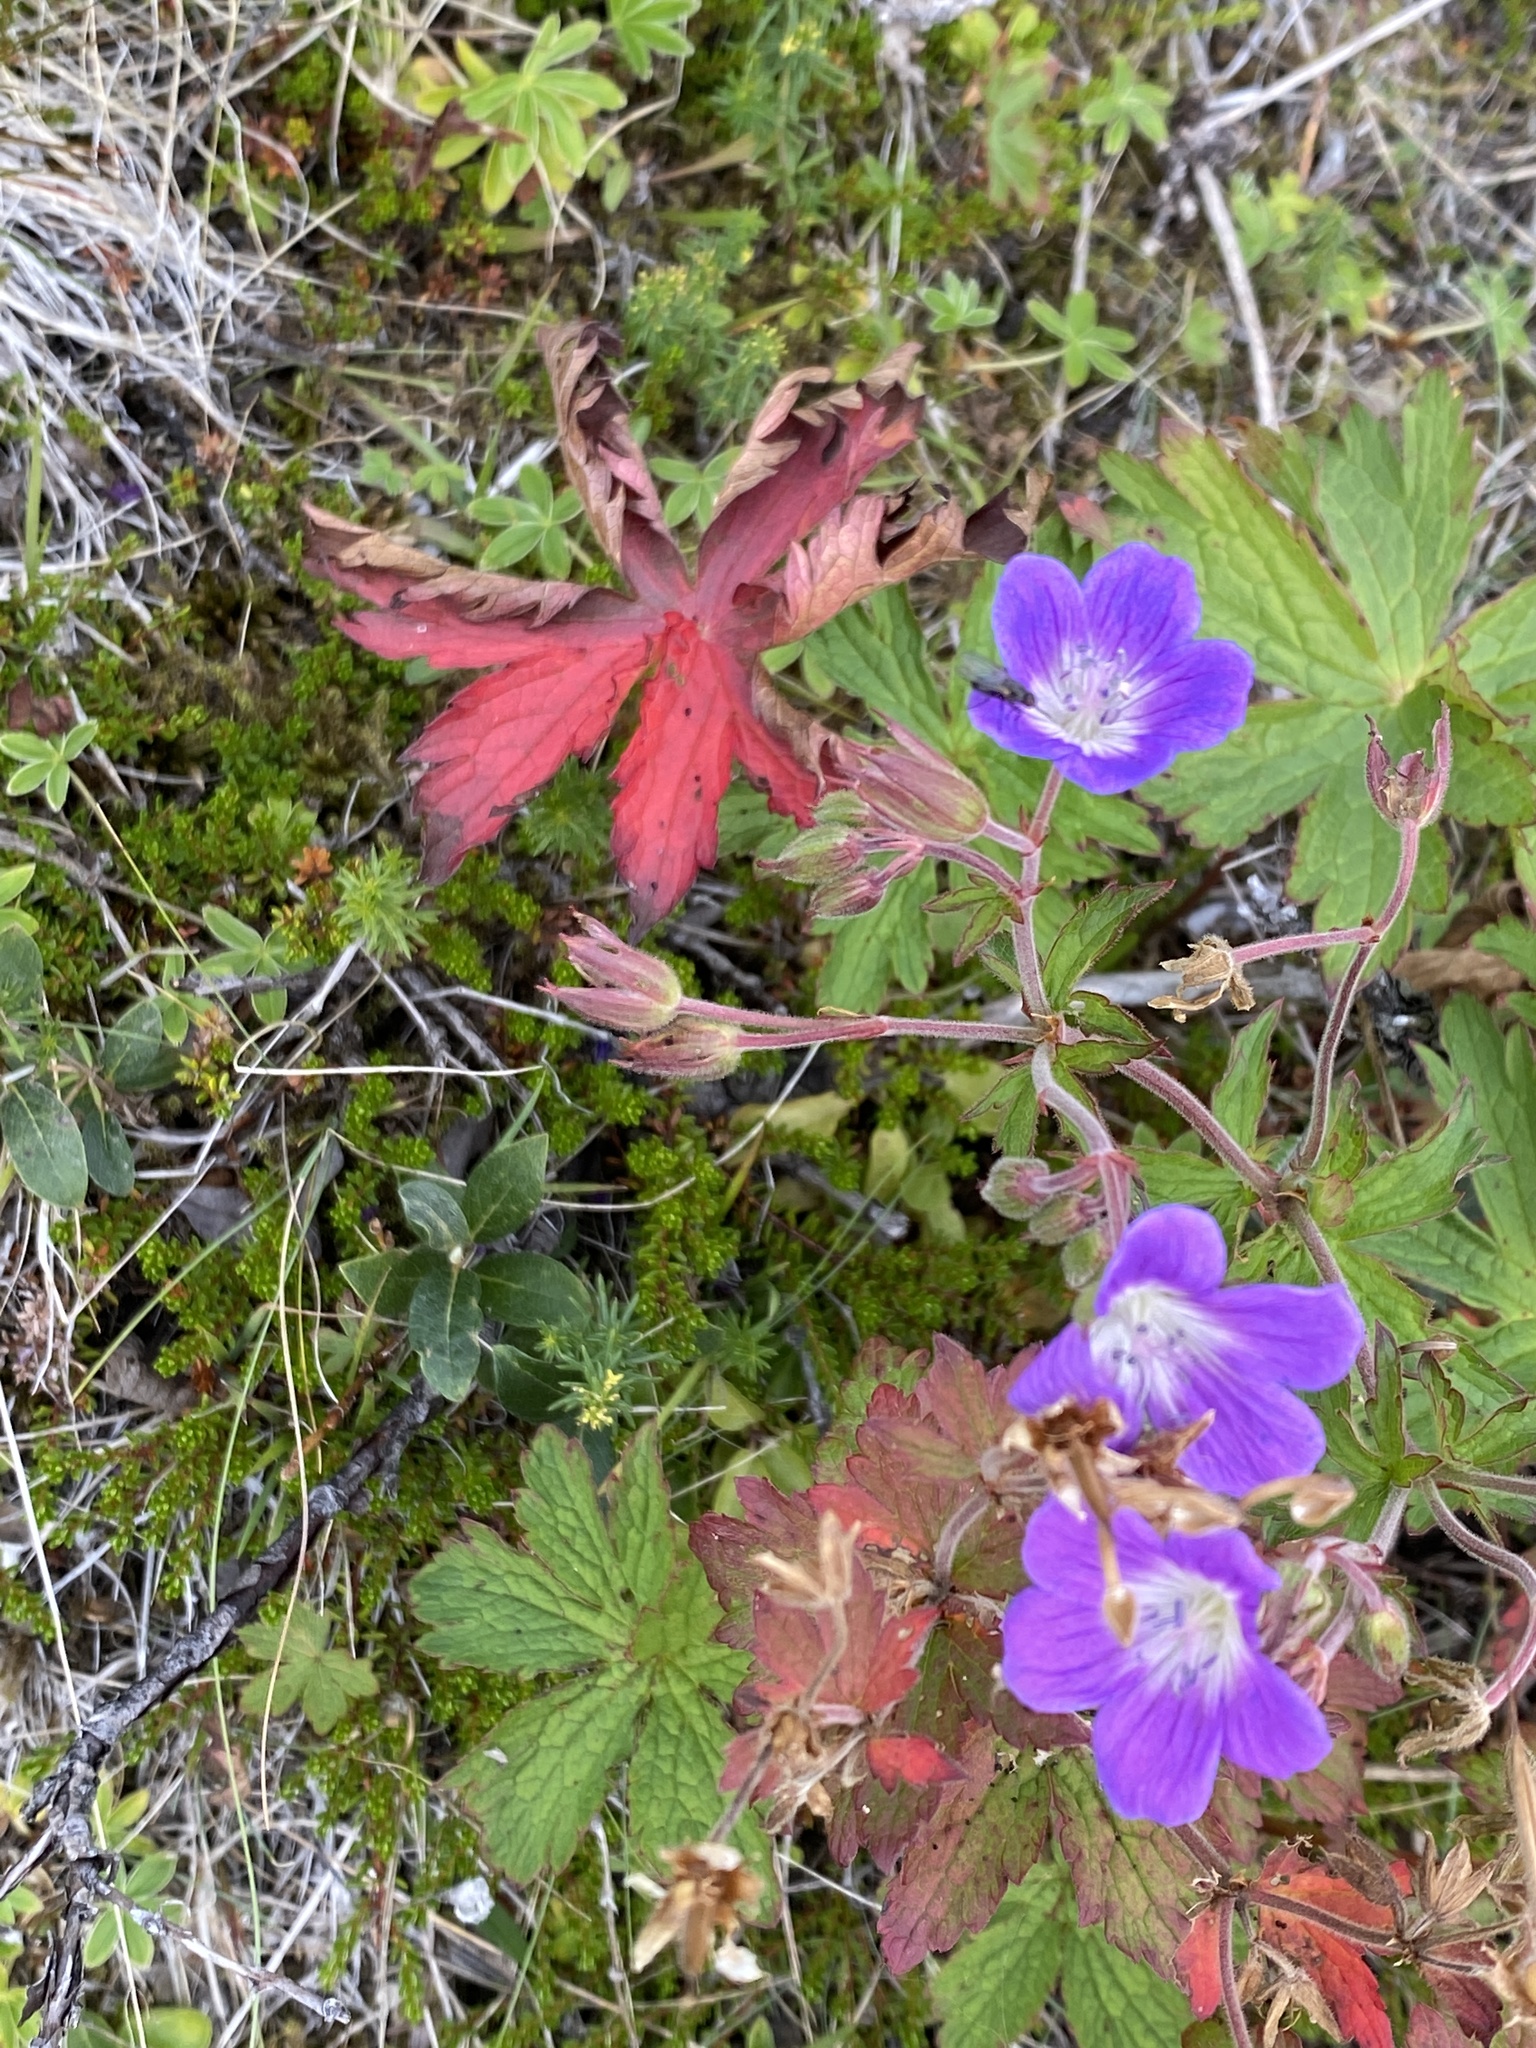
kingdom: Plantae
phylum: Tracheophyta
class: Magnoliopsida
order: Geraniales
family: Geraniaceae
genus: Geranium
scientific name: Geranium sylvaticum
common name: Wood crane's-bill
